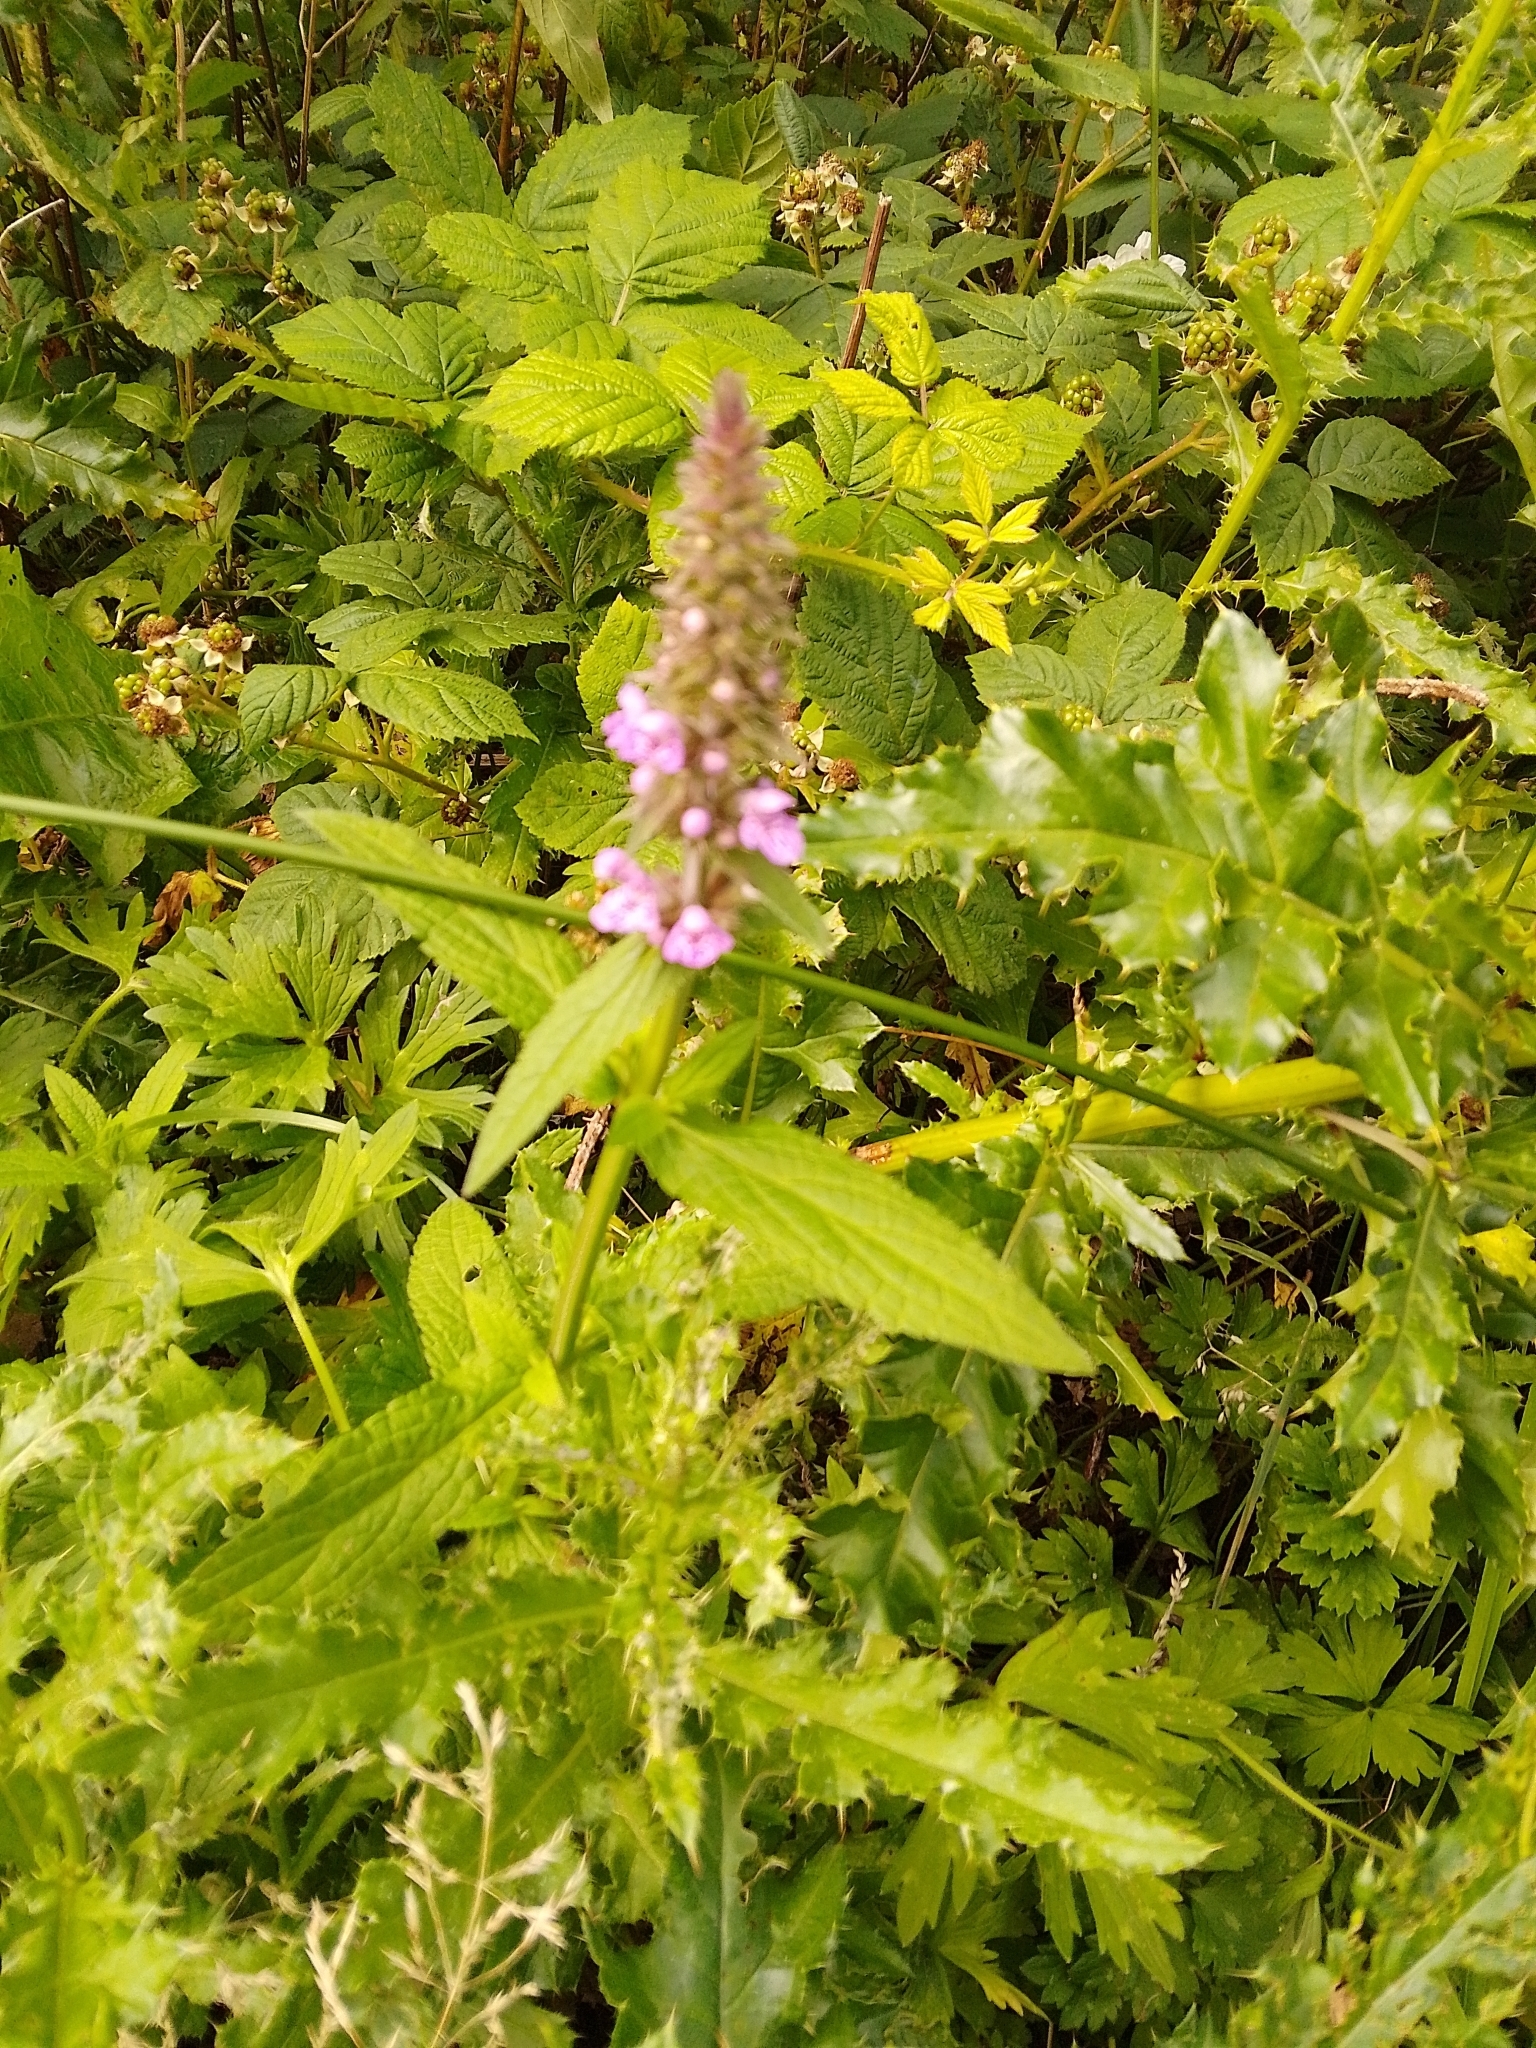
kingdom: Plantae
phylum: Tracheophyta
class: Magnoliopsida
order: Lamiales
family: Lamiaceae
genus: Stachys
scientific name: Stachys palustris
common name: Marsh woundwort
